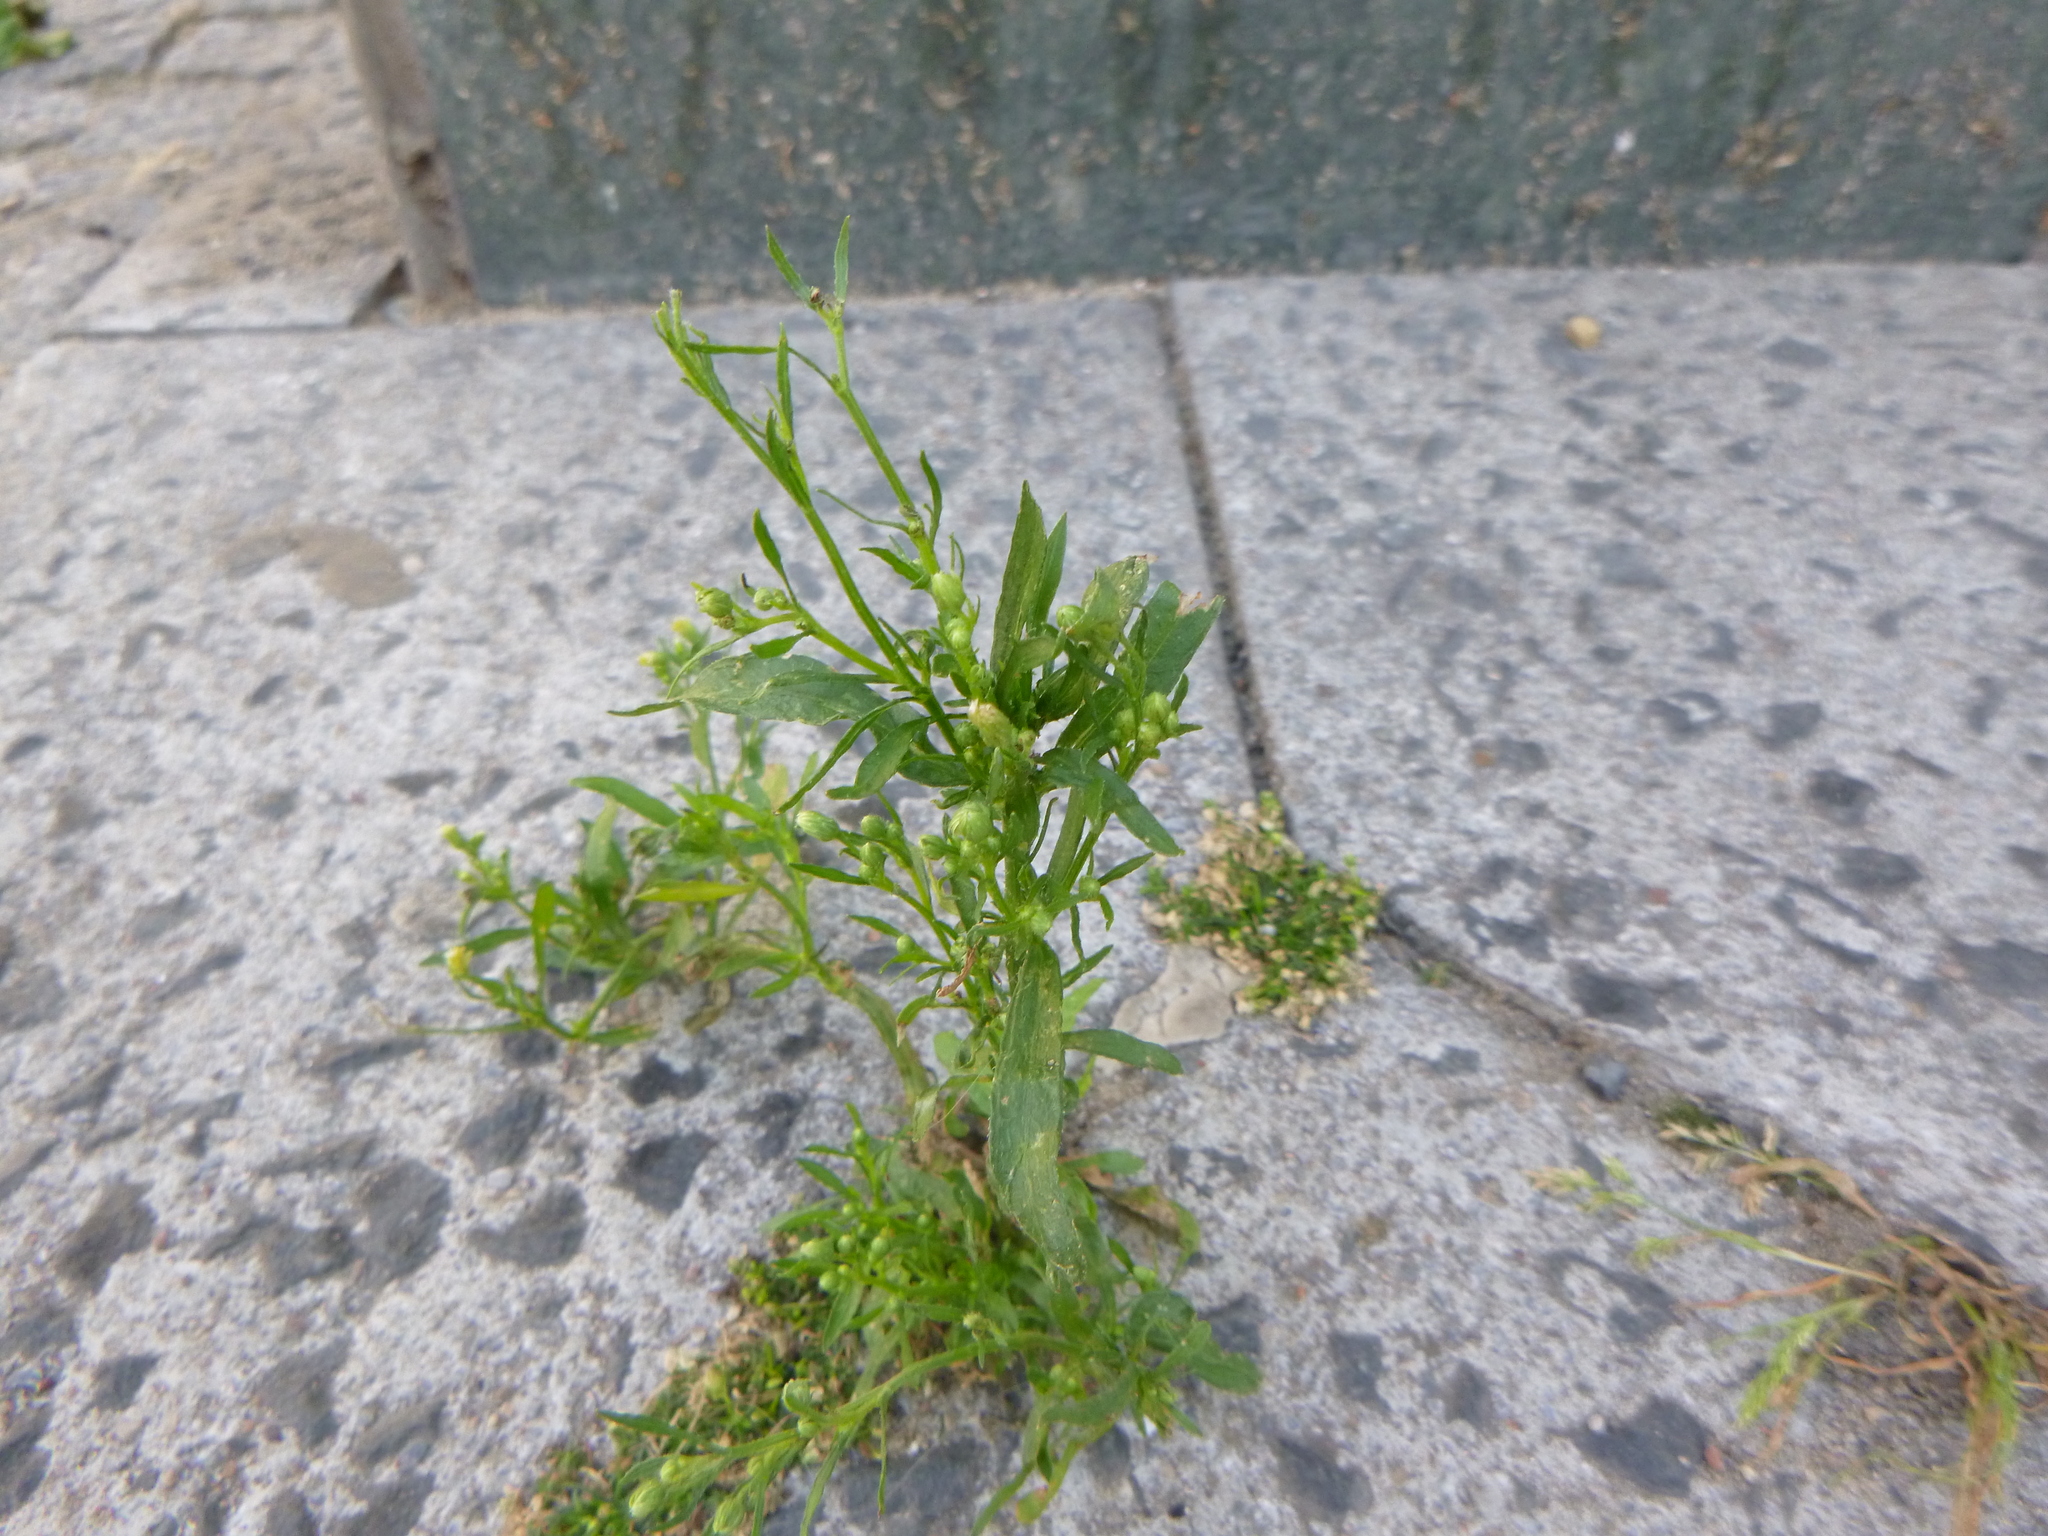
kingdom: Plantae
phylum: Tracheophyta
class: Magnoliopsida
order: Asterales
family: Asteraceae
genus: Erigeron
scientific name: Erigeron canadensis
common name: Canadian fleabane
